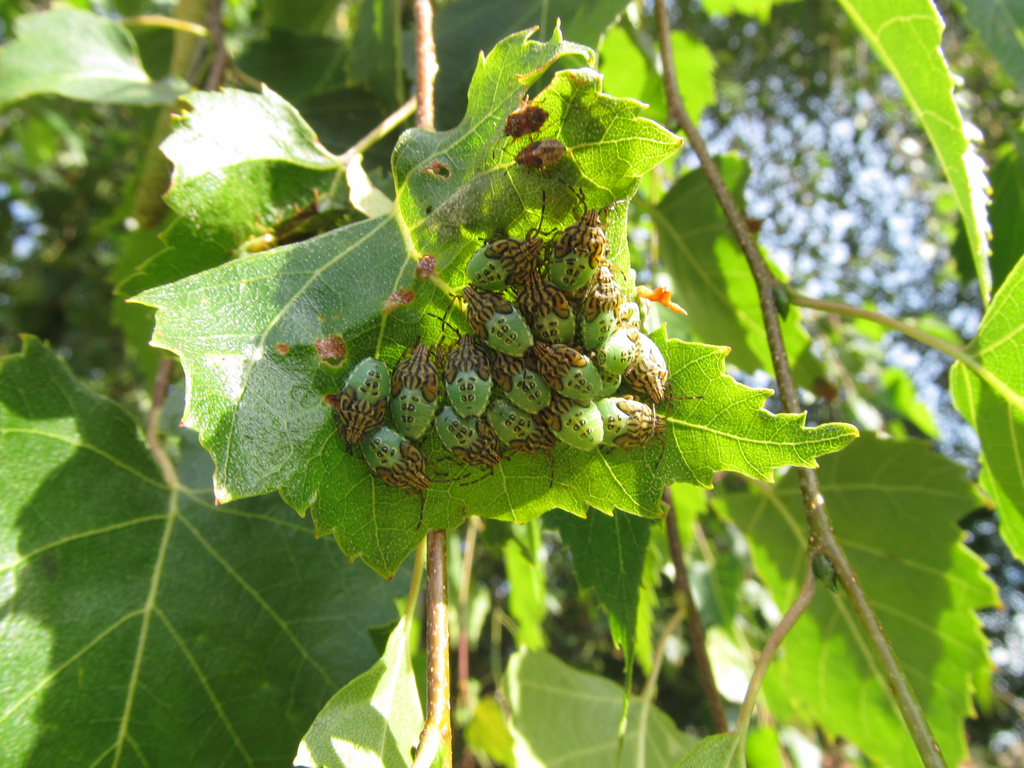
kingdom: Animalia
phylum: Arthropoda
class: Insecta
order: Hemiptera
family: Acanthosomatidae
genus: Elasmucha
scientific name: Elasmucha grisea
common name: Parent bug
